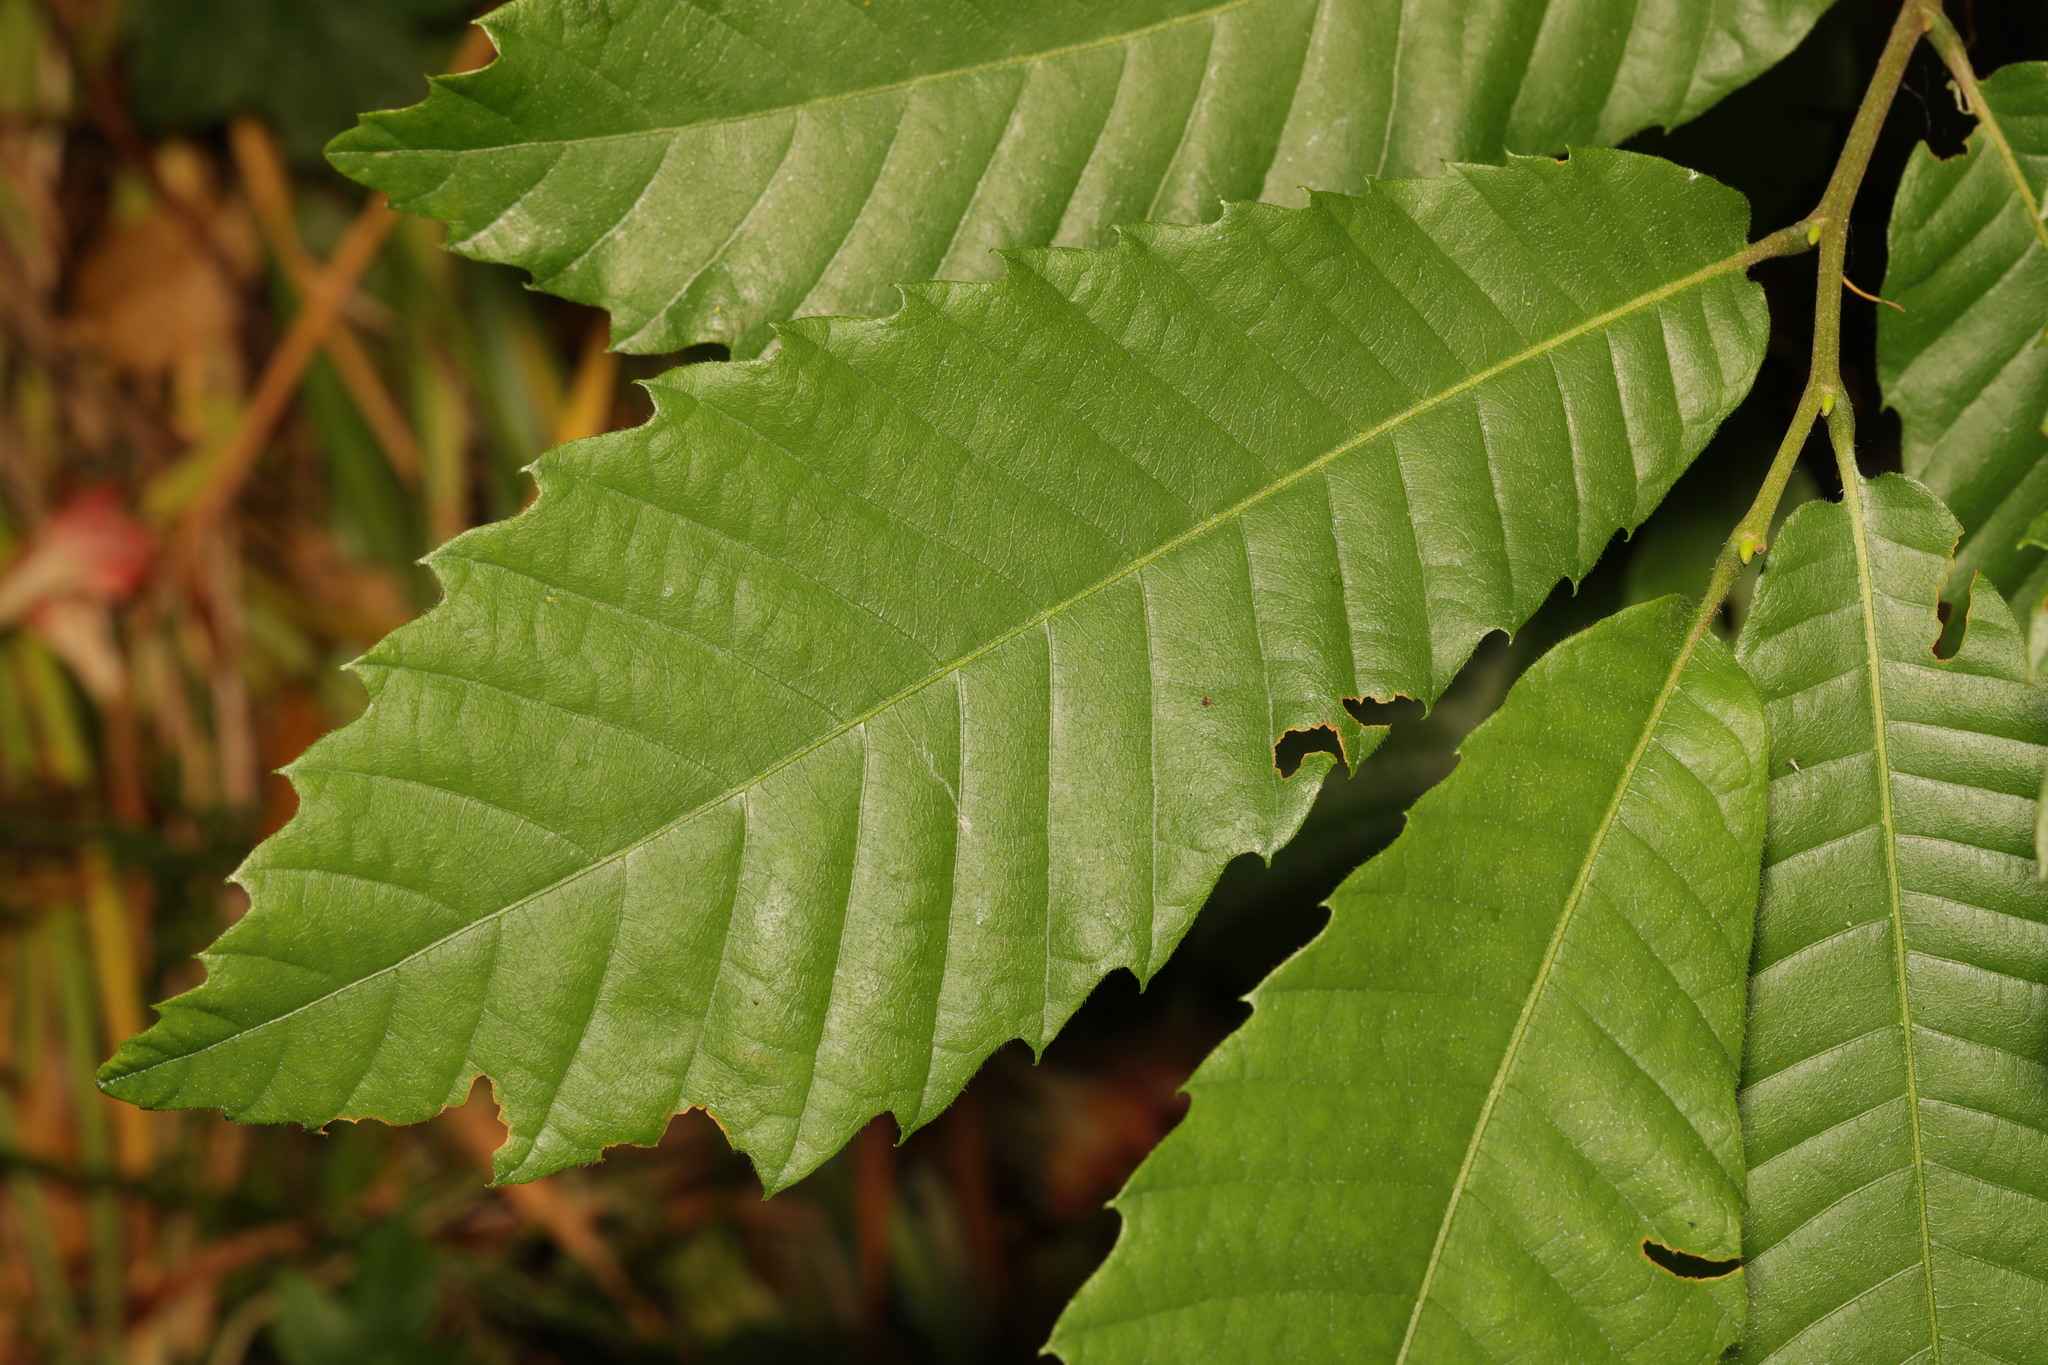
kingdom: Plantae
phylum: Tracheophyta
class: Magnoliopsida
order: Fagales
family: Fagaceae
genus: Castanea
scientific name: Castanea sativa
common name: Sweet chestnut
